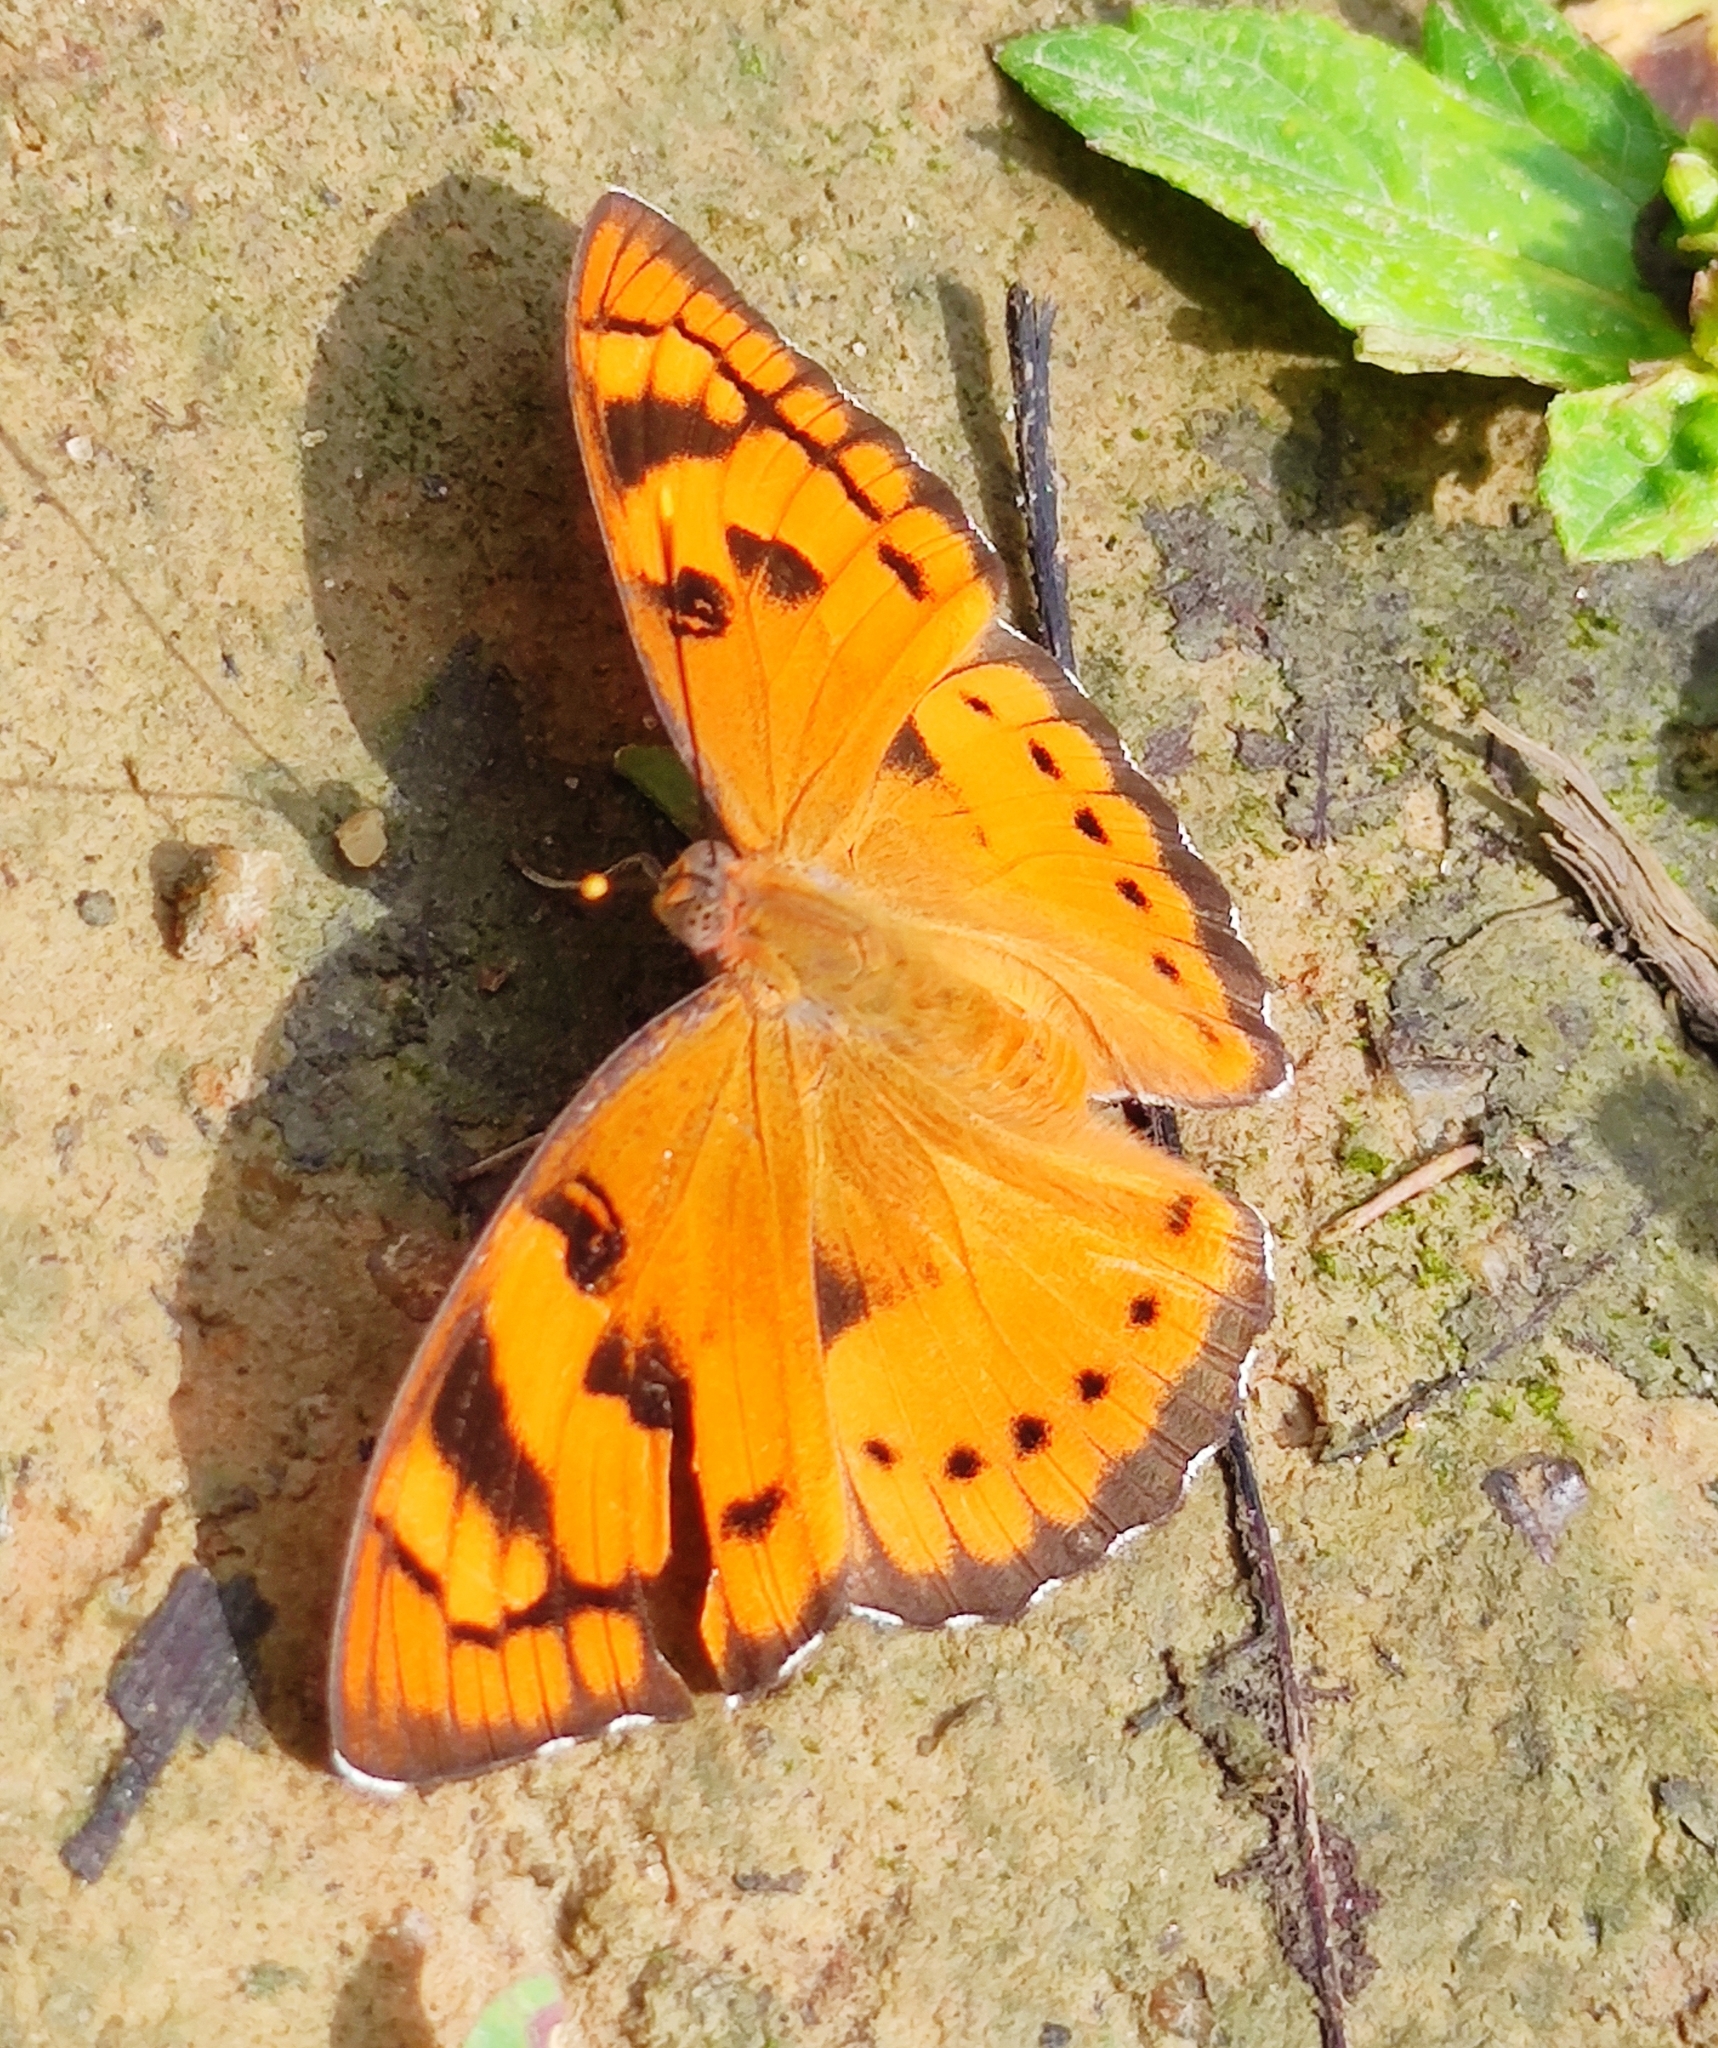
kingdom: Animalia
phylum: Arthropoda
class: Insecta
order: Lepidoptera
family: Nymphalidae
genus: Euthalia
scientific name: Euthalia nais
